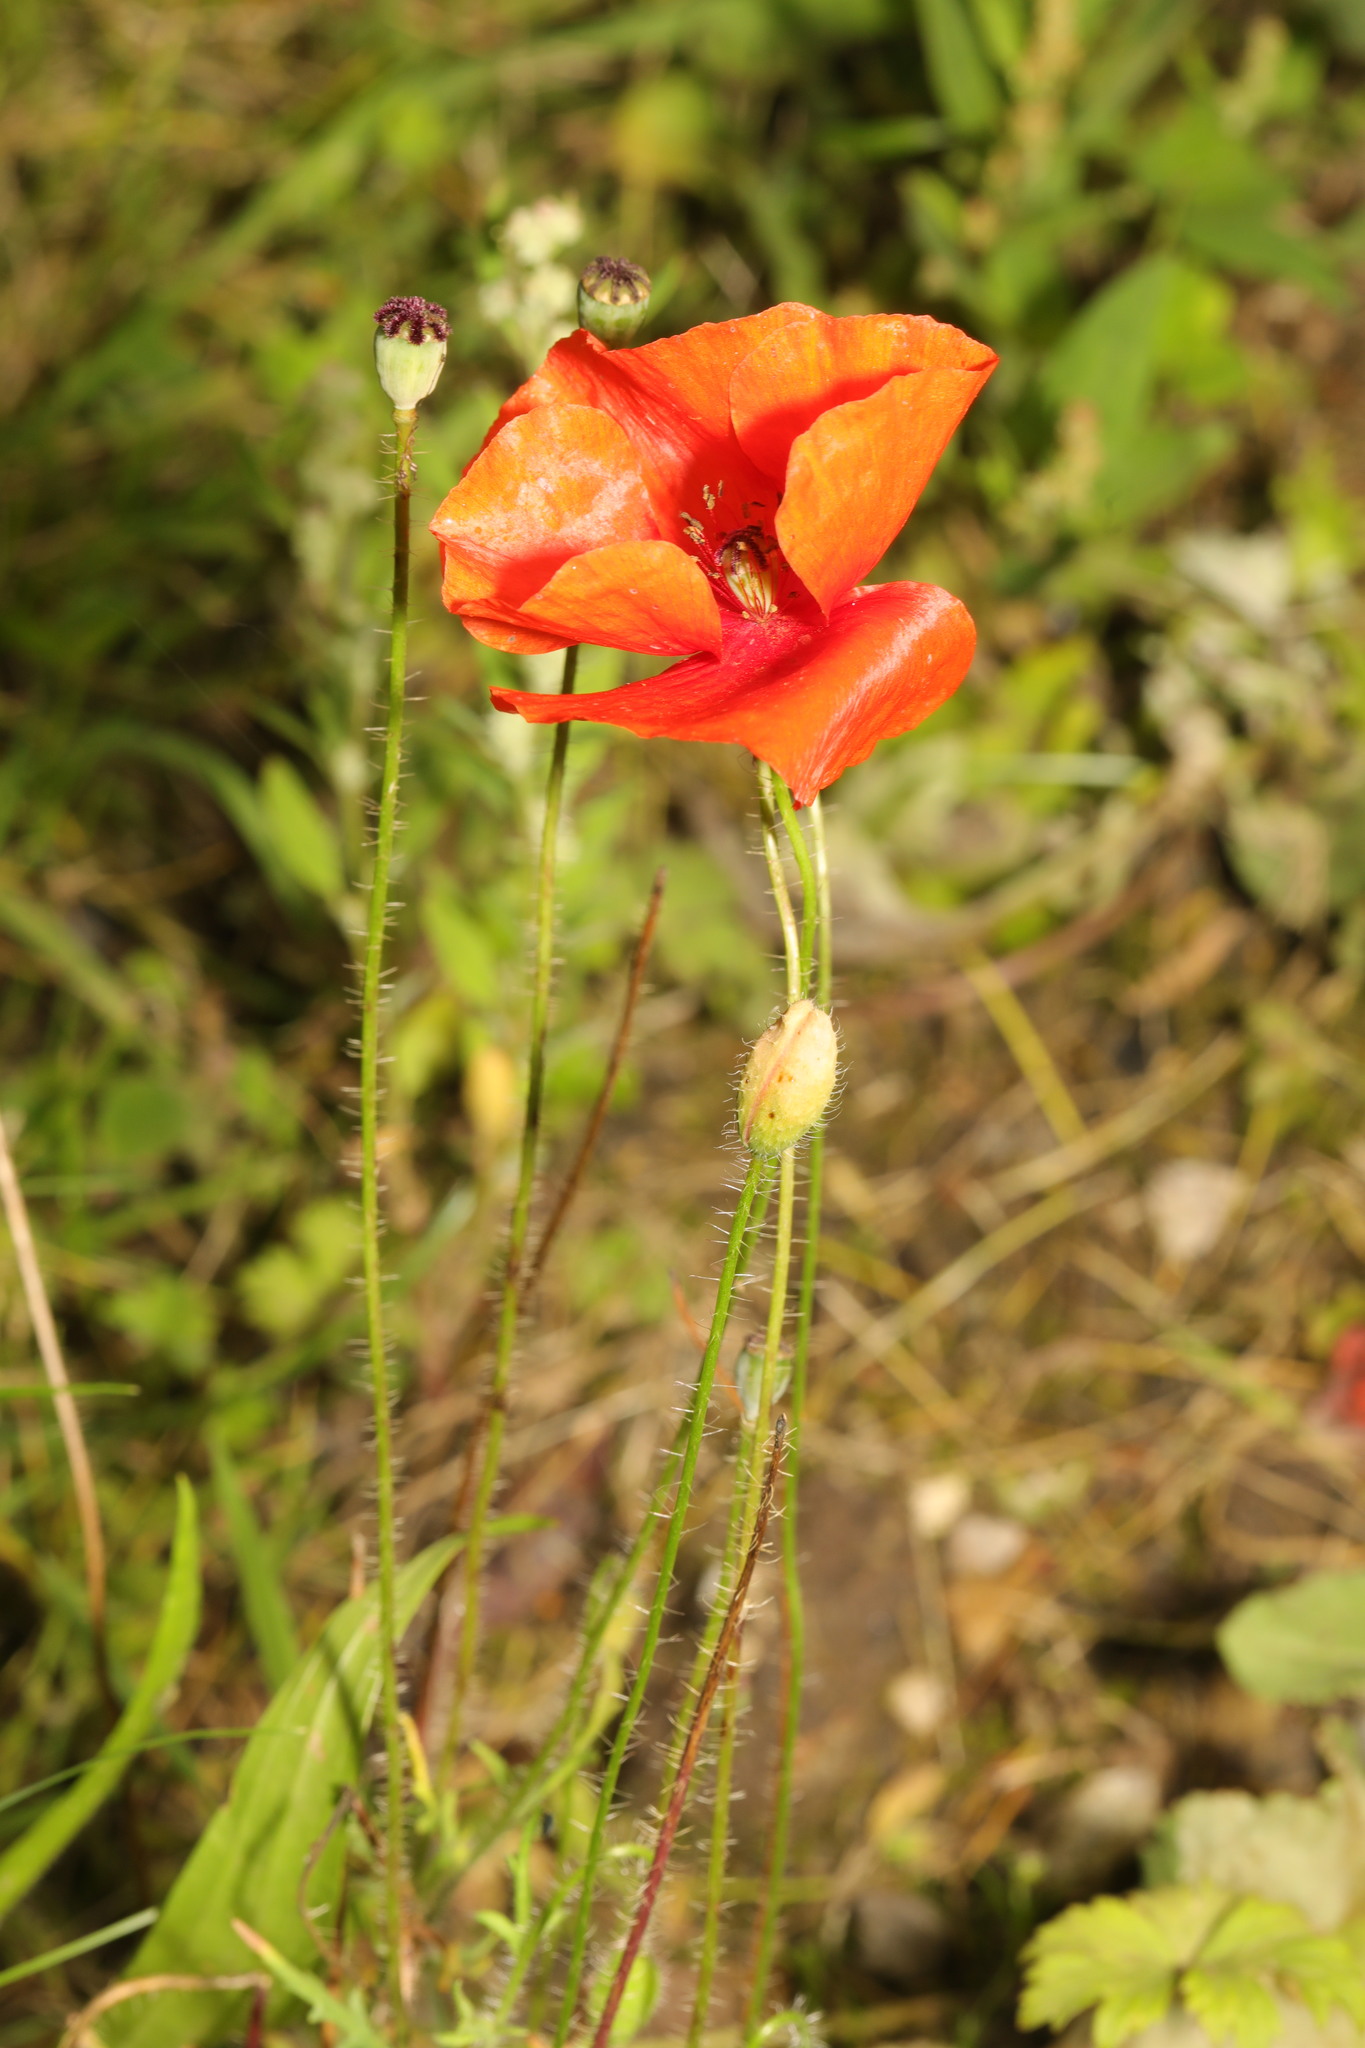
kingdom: Plantae
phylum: Tracheophyta
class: Magnoliopsida
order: Ranunculales
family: Papaveraceae
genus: Papaver
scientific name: Papaver rhoeas
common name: Corn poppy
